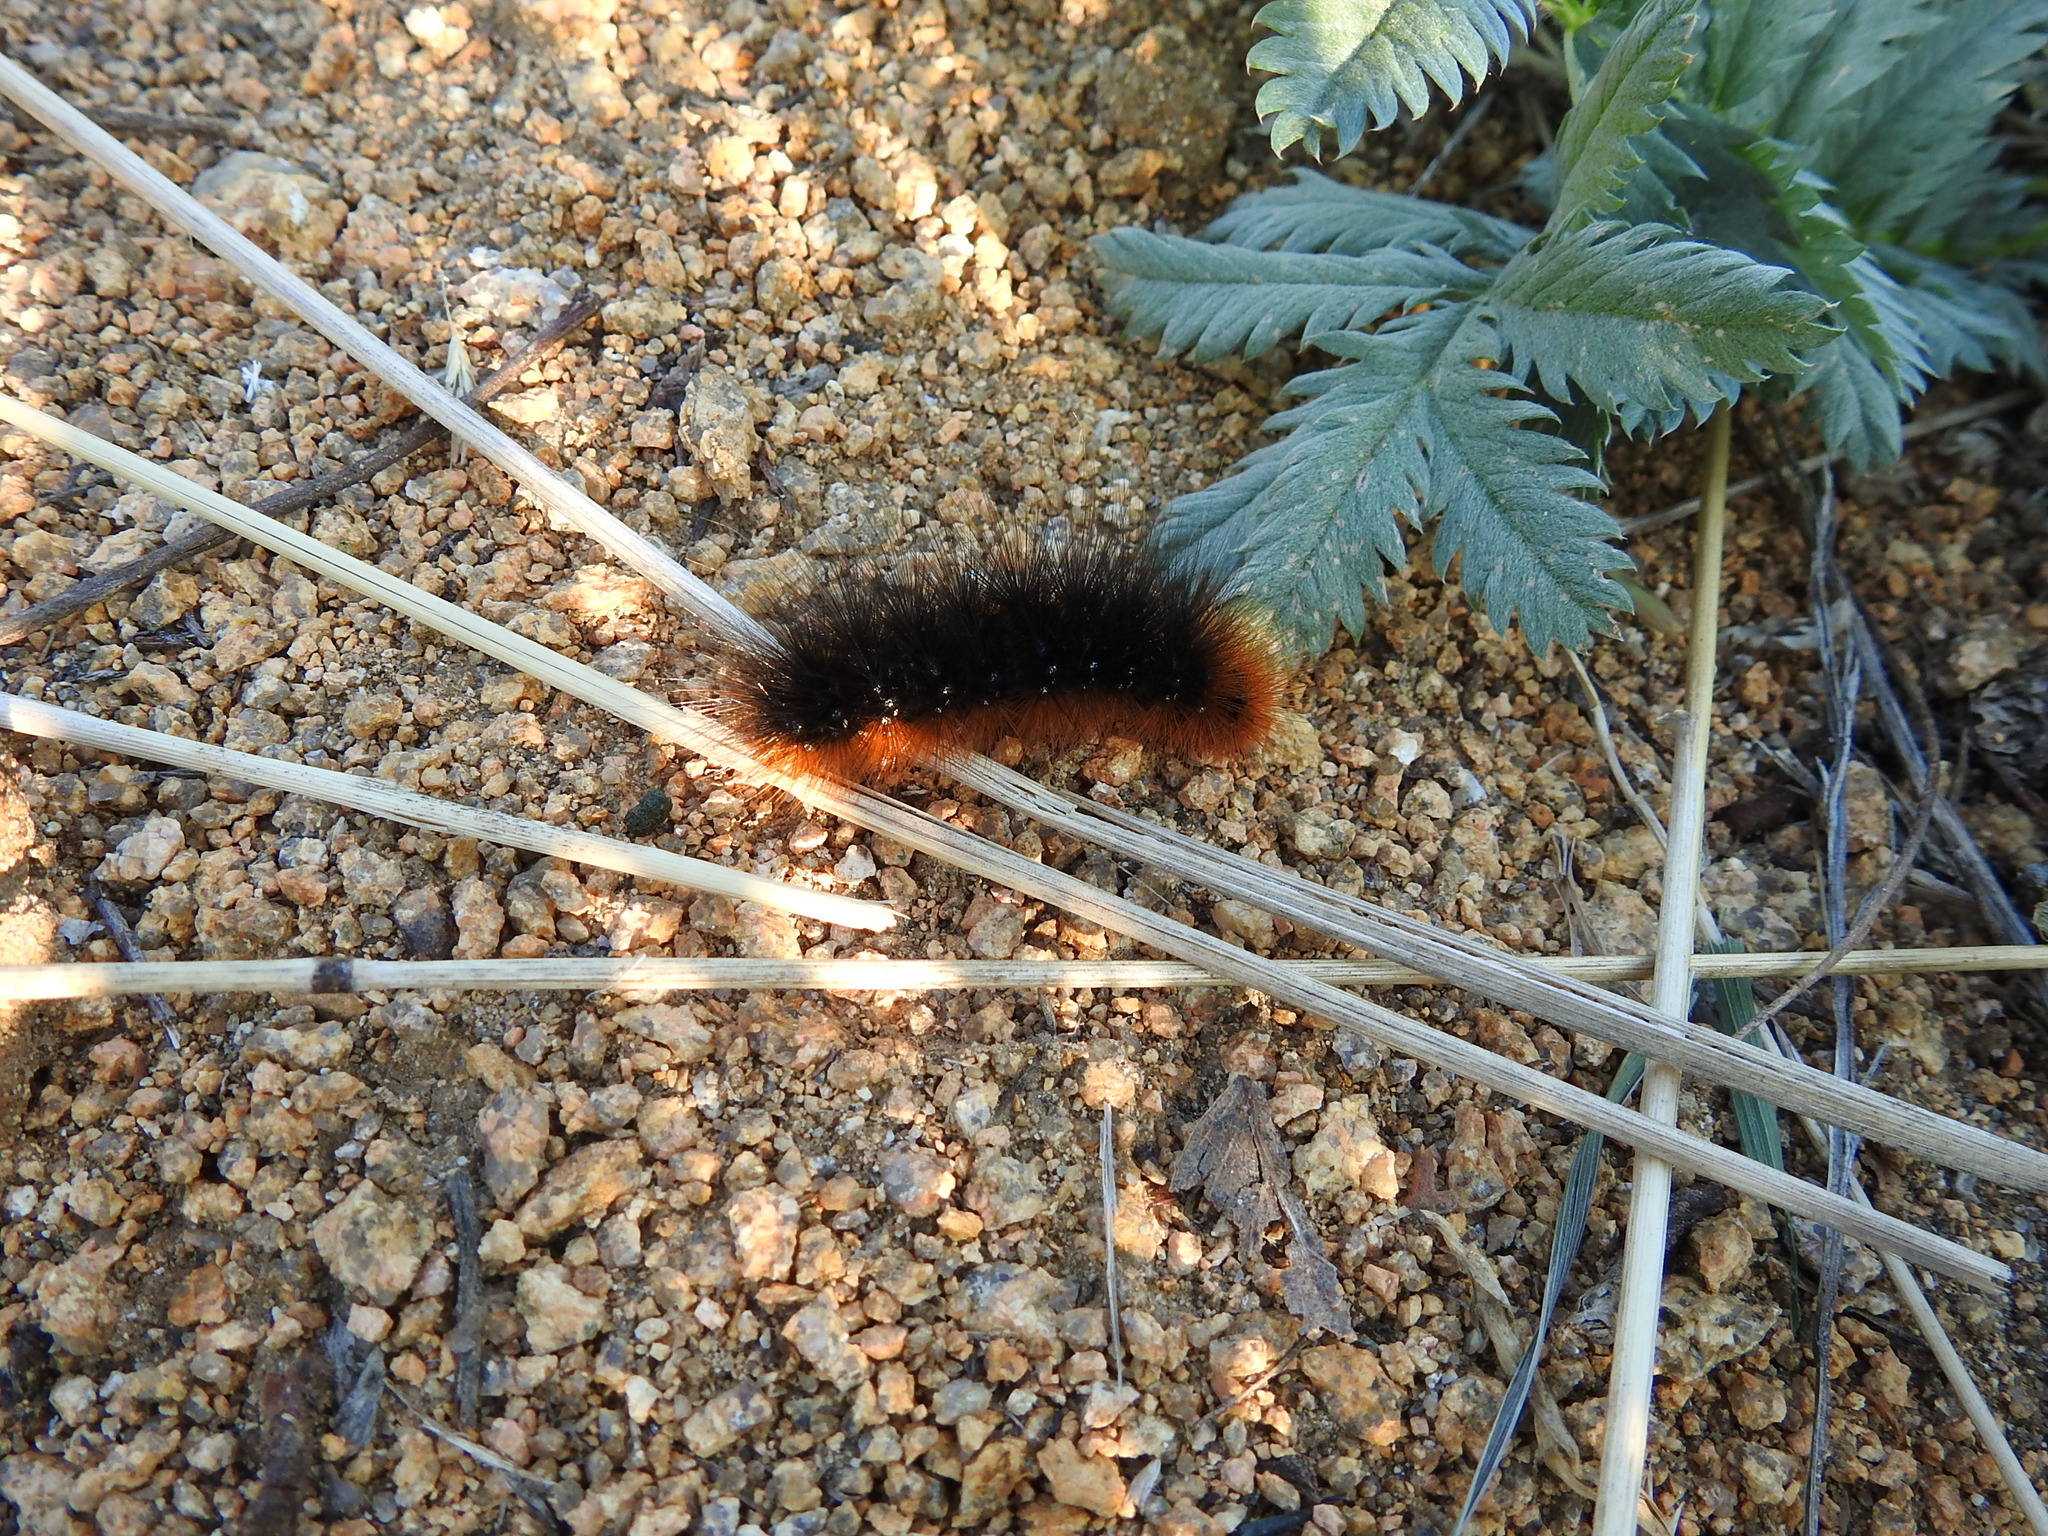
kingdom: Animalia
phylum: Arthropoda
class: Insecta
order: Lepidoptera
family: Erebidae
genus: Arctia
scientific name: Arctia caja
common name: Garden tiger
